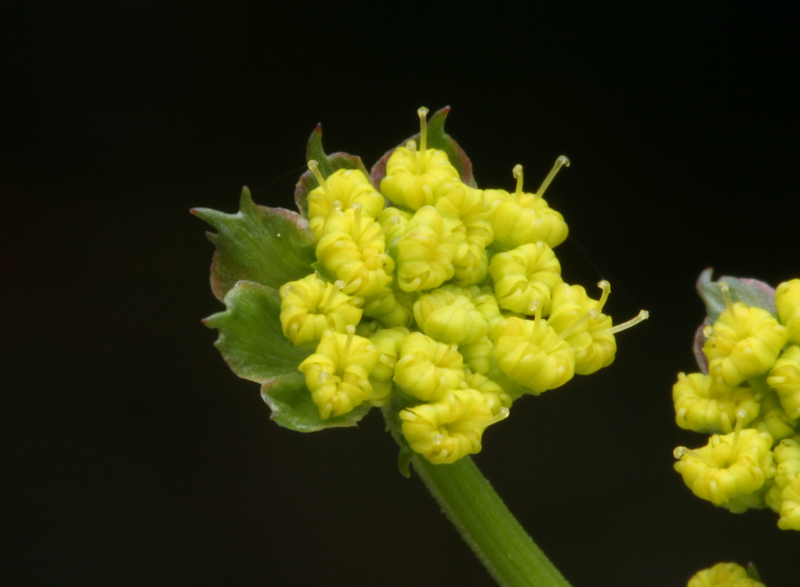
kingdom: Plantae
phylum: Tracheophyta
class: Magnoliopsida
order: Apiales
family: Apiaceae
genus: Lomatium
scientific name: Lomatium utriculatum
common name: Fine-leaf desert-parsley
